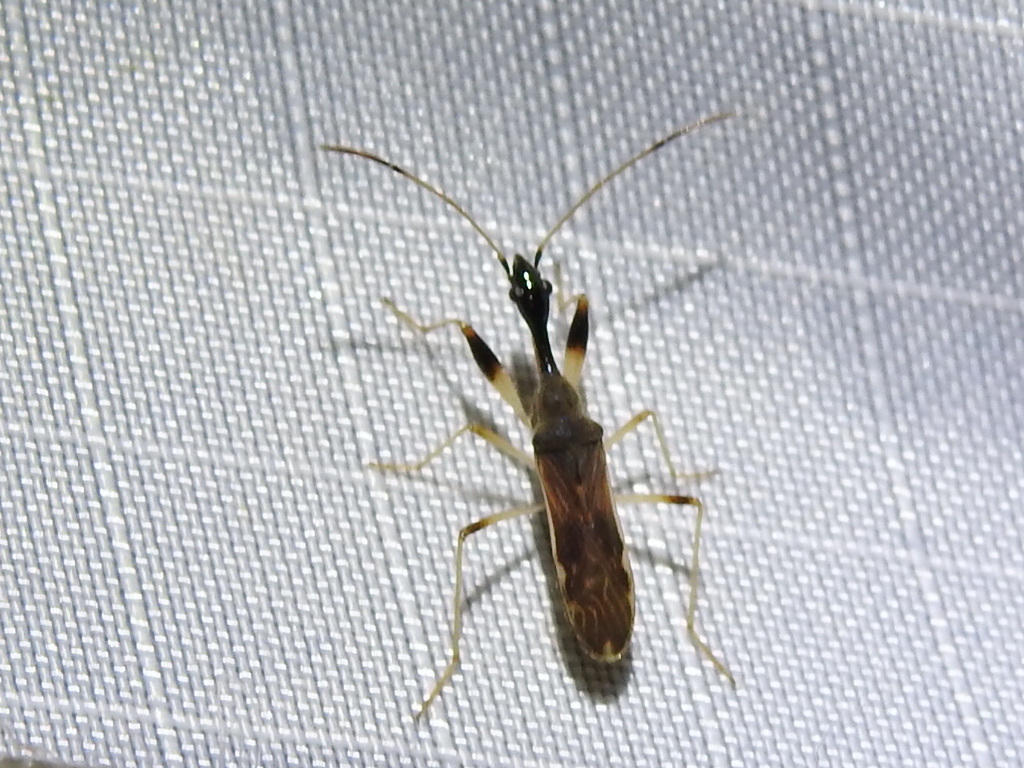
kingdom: Animalia
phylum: Arthropoda
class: Insecta
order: Hemiptera
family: Rhyparochromidae
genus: Myodocha
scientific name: Myodocha serripes
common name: Long-necked seed bug
